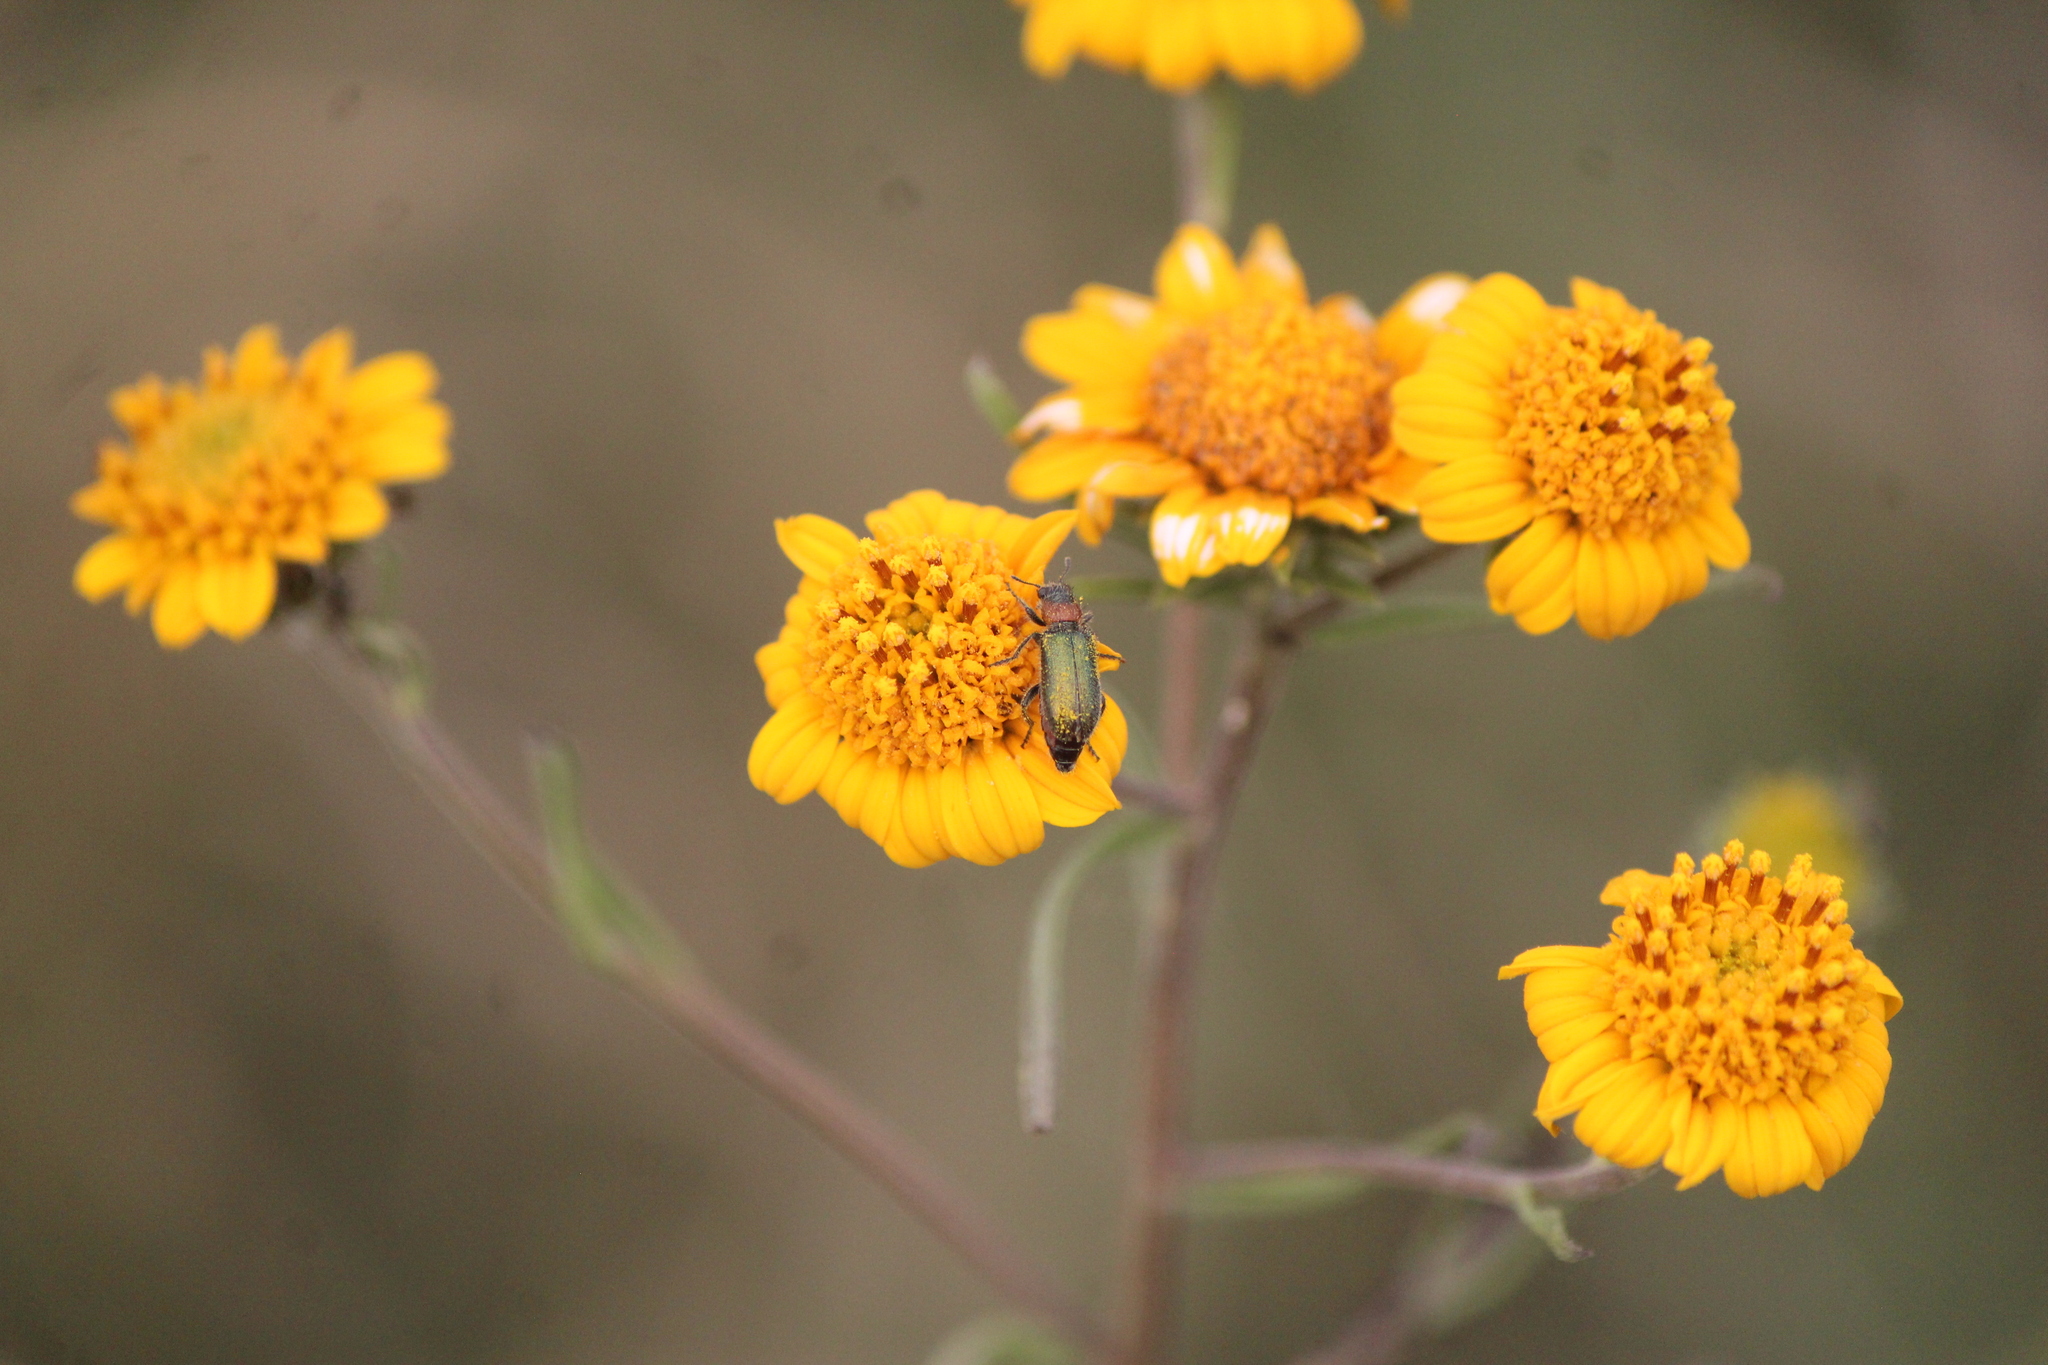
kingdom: Animalia
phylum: Arthropoda
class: Insecta
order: Coleoptera
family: Cleridae
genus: Dologenitus
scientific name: Dologenitus
